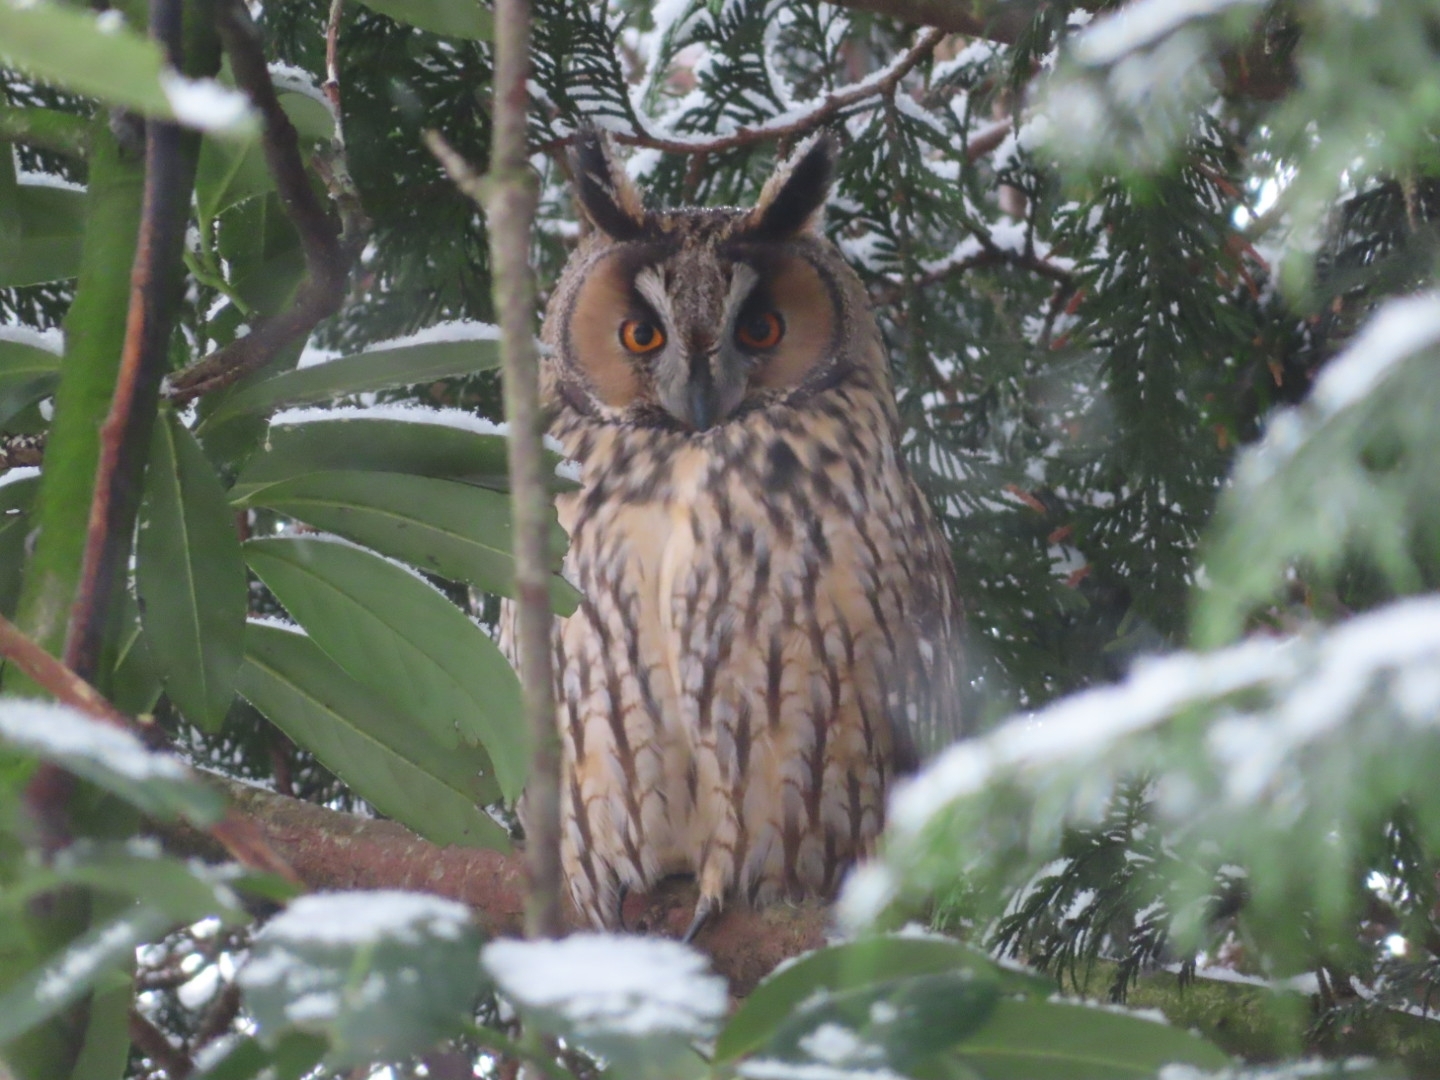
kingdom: Animalia
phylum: Chordata
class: Aves
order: Strigiformes
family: Strigidae
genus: Asio
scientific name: Asio otus
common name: Long-eared owl
